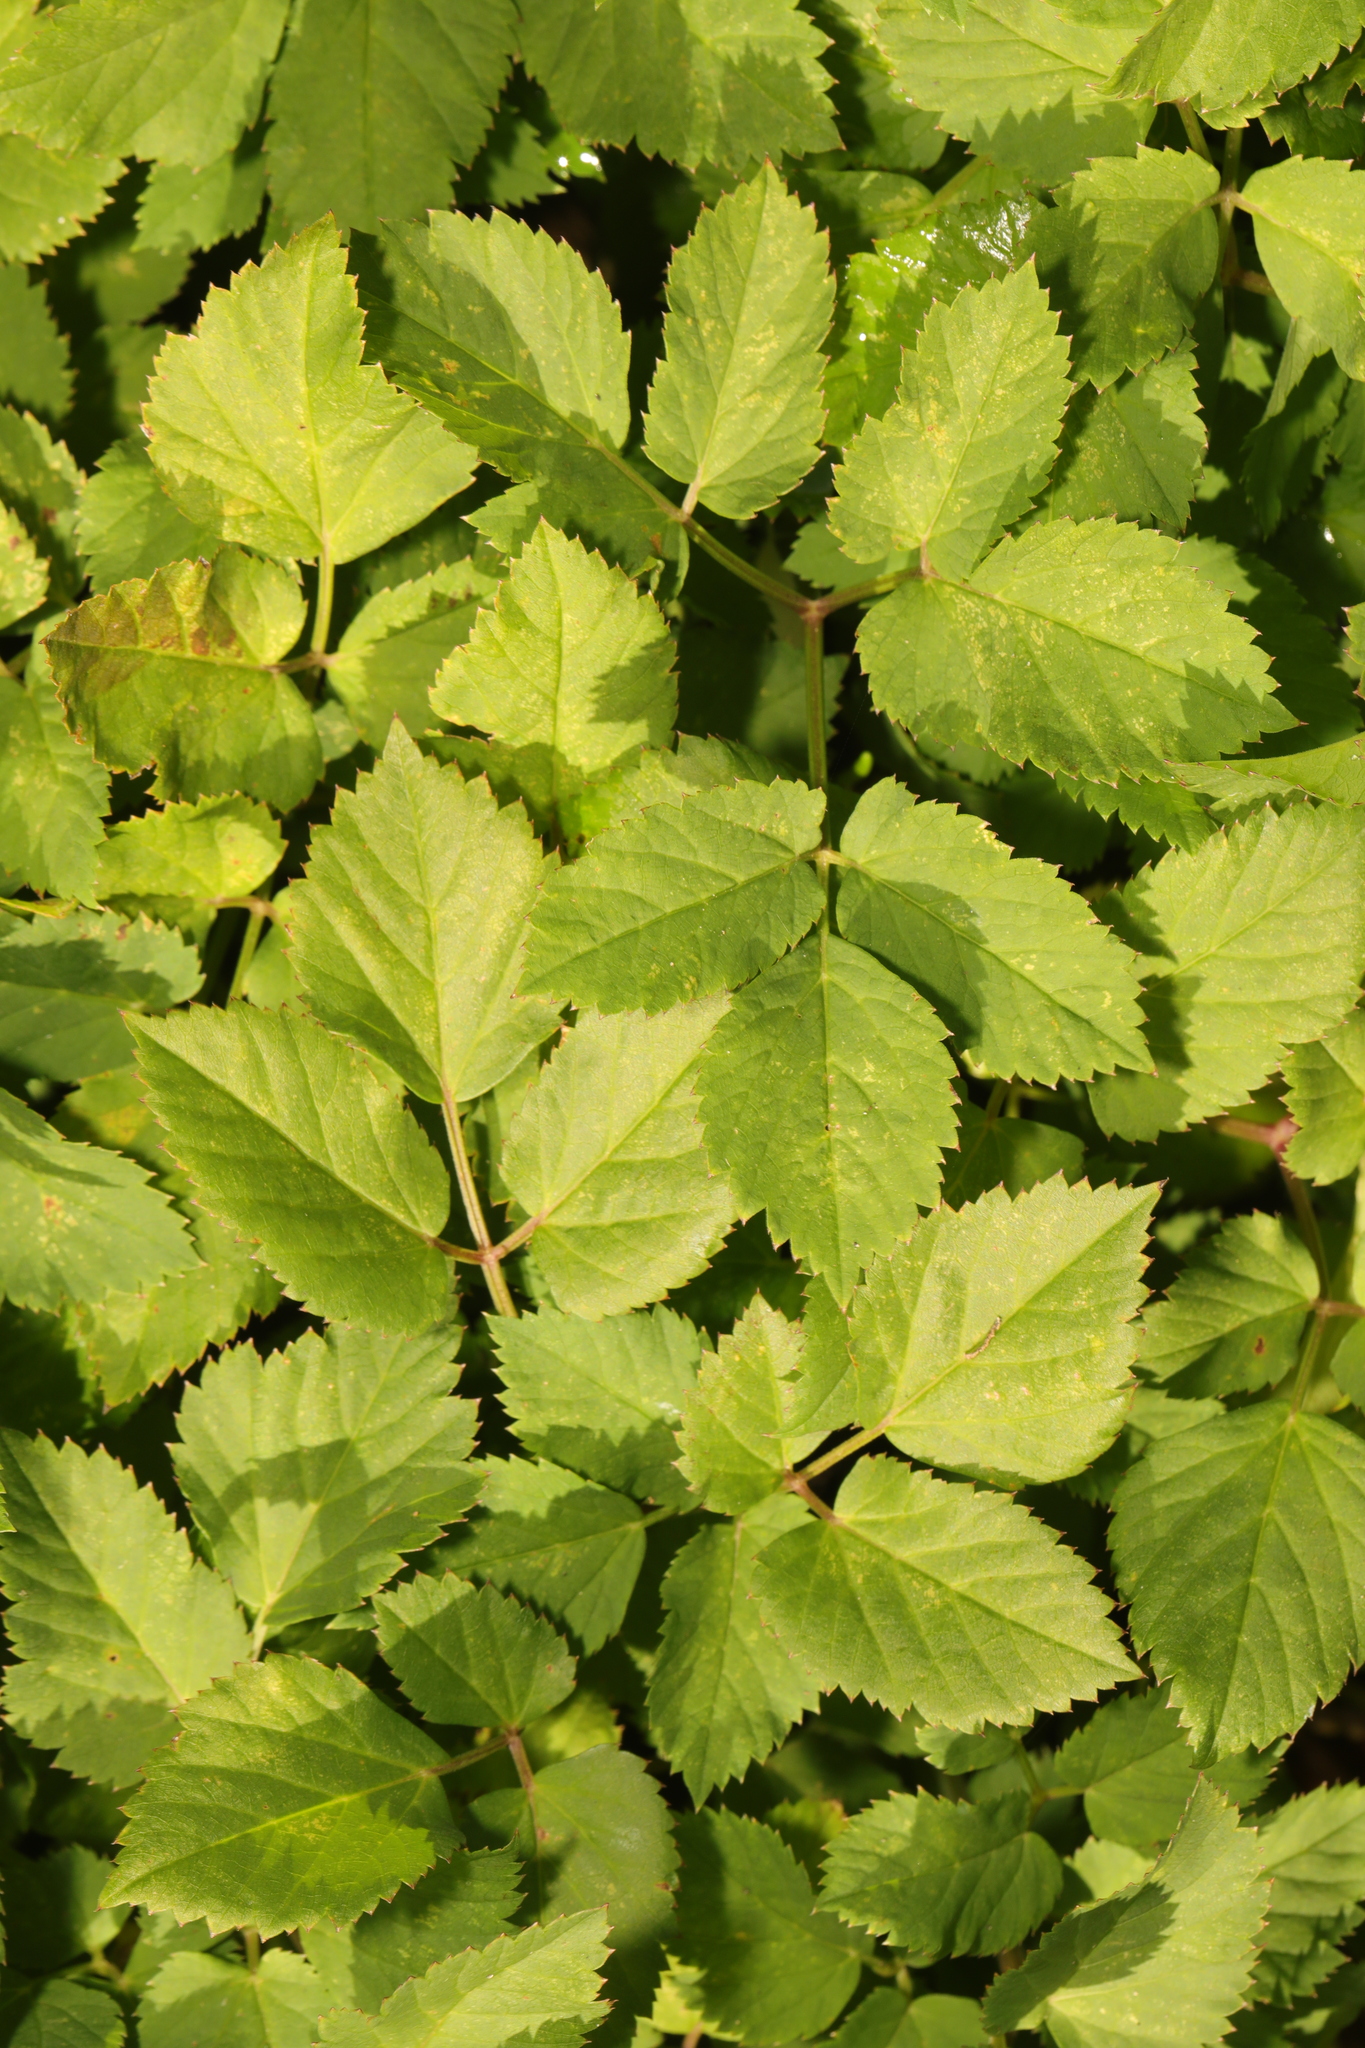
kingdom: Plantae
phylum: Tracheophyta
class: Magnoliopsida
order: Apiales
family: Apiaceae
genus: Aegopodium
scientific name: Aegopodium podagraria
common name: Ground-elder
